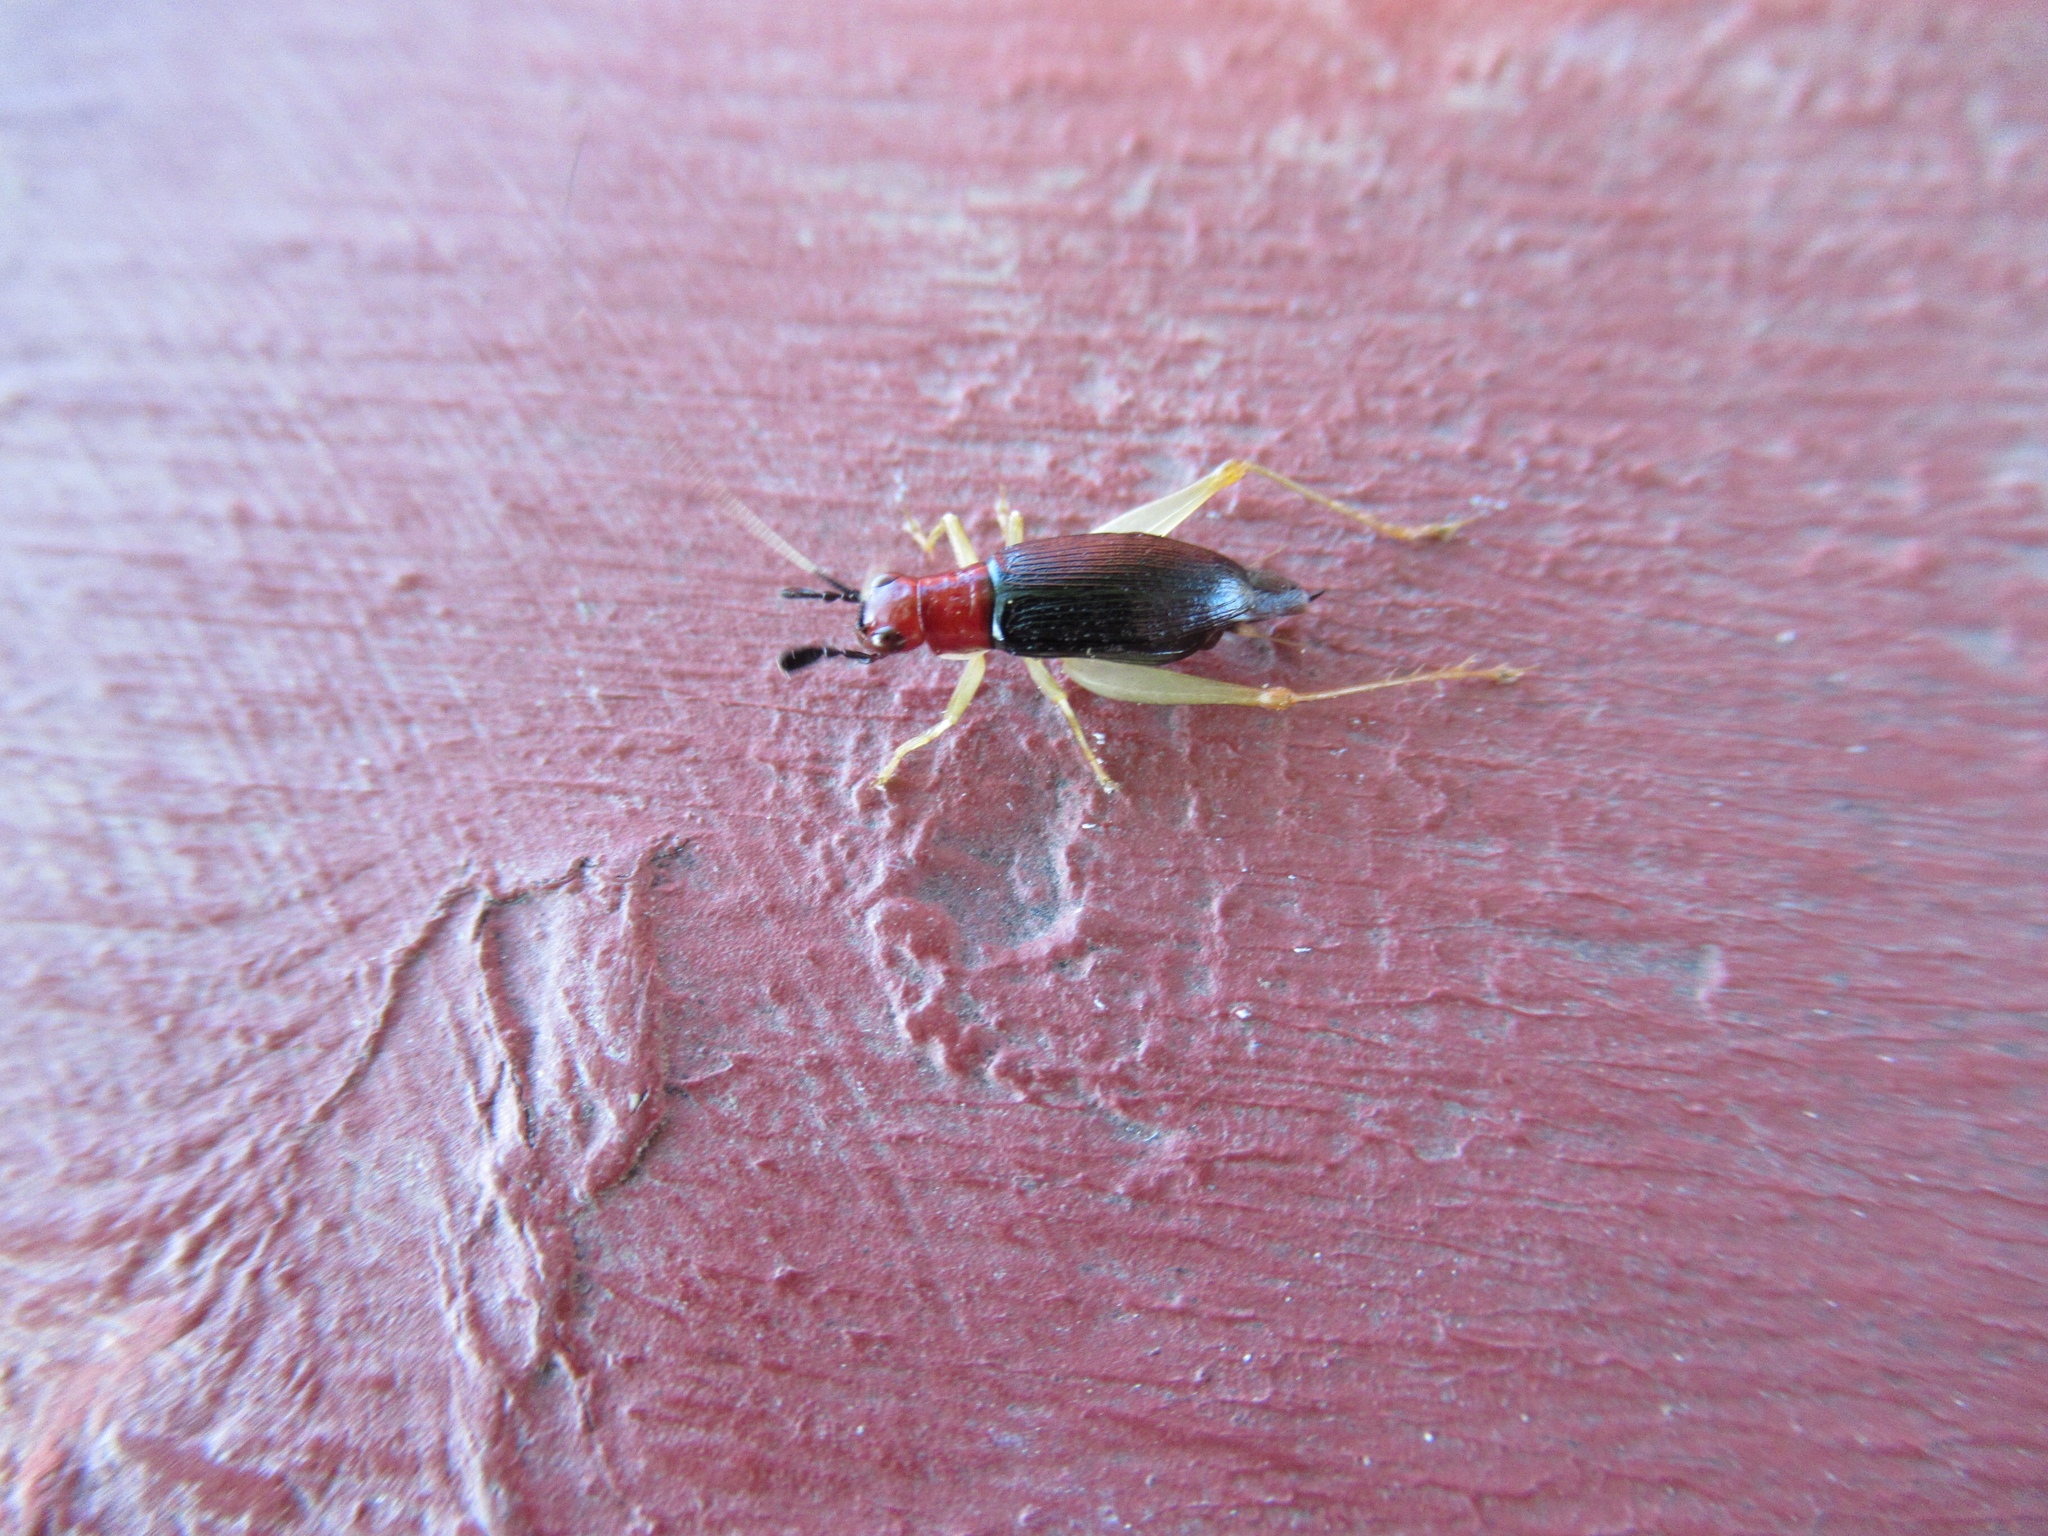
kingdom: Animalia
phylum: Arthropoda
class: Insecta
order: Orthoptera
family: Trigonidiidae
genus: Phyllopalpus
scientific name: Phyllopalpus pulchellus
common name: Handsome trig
